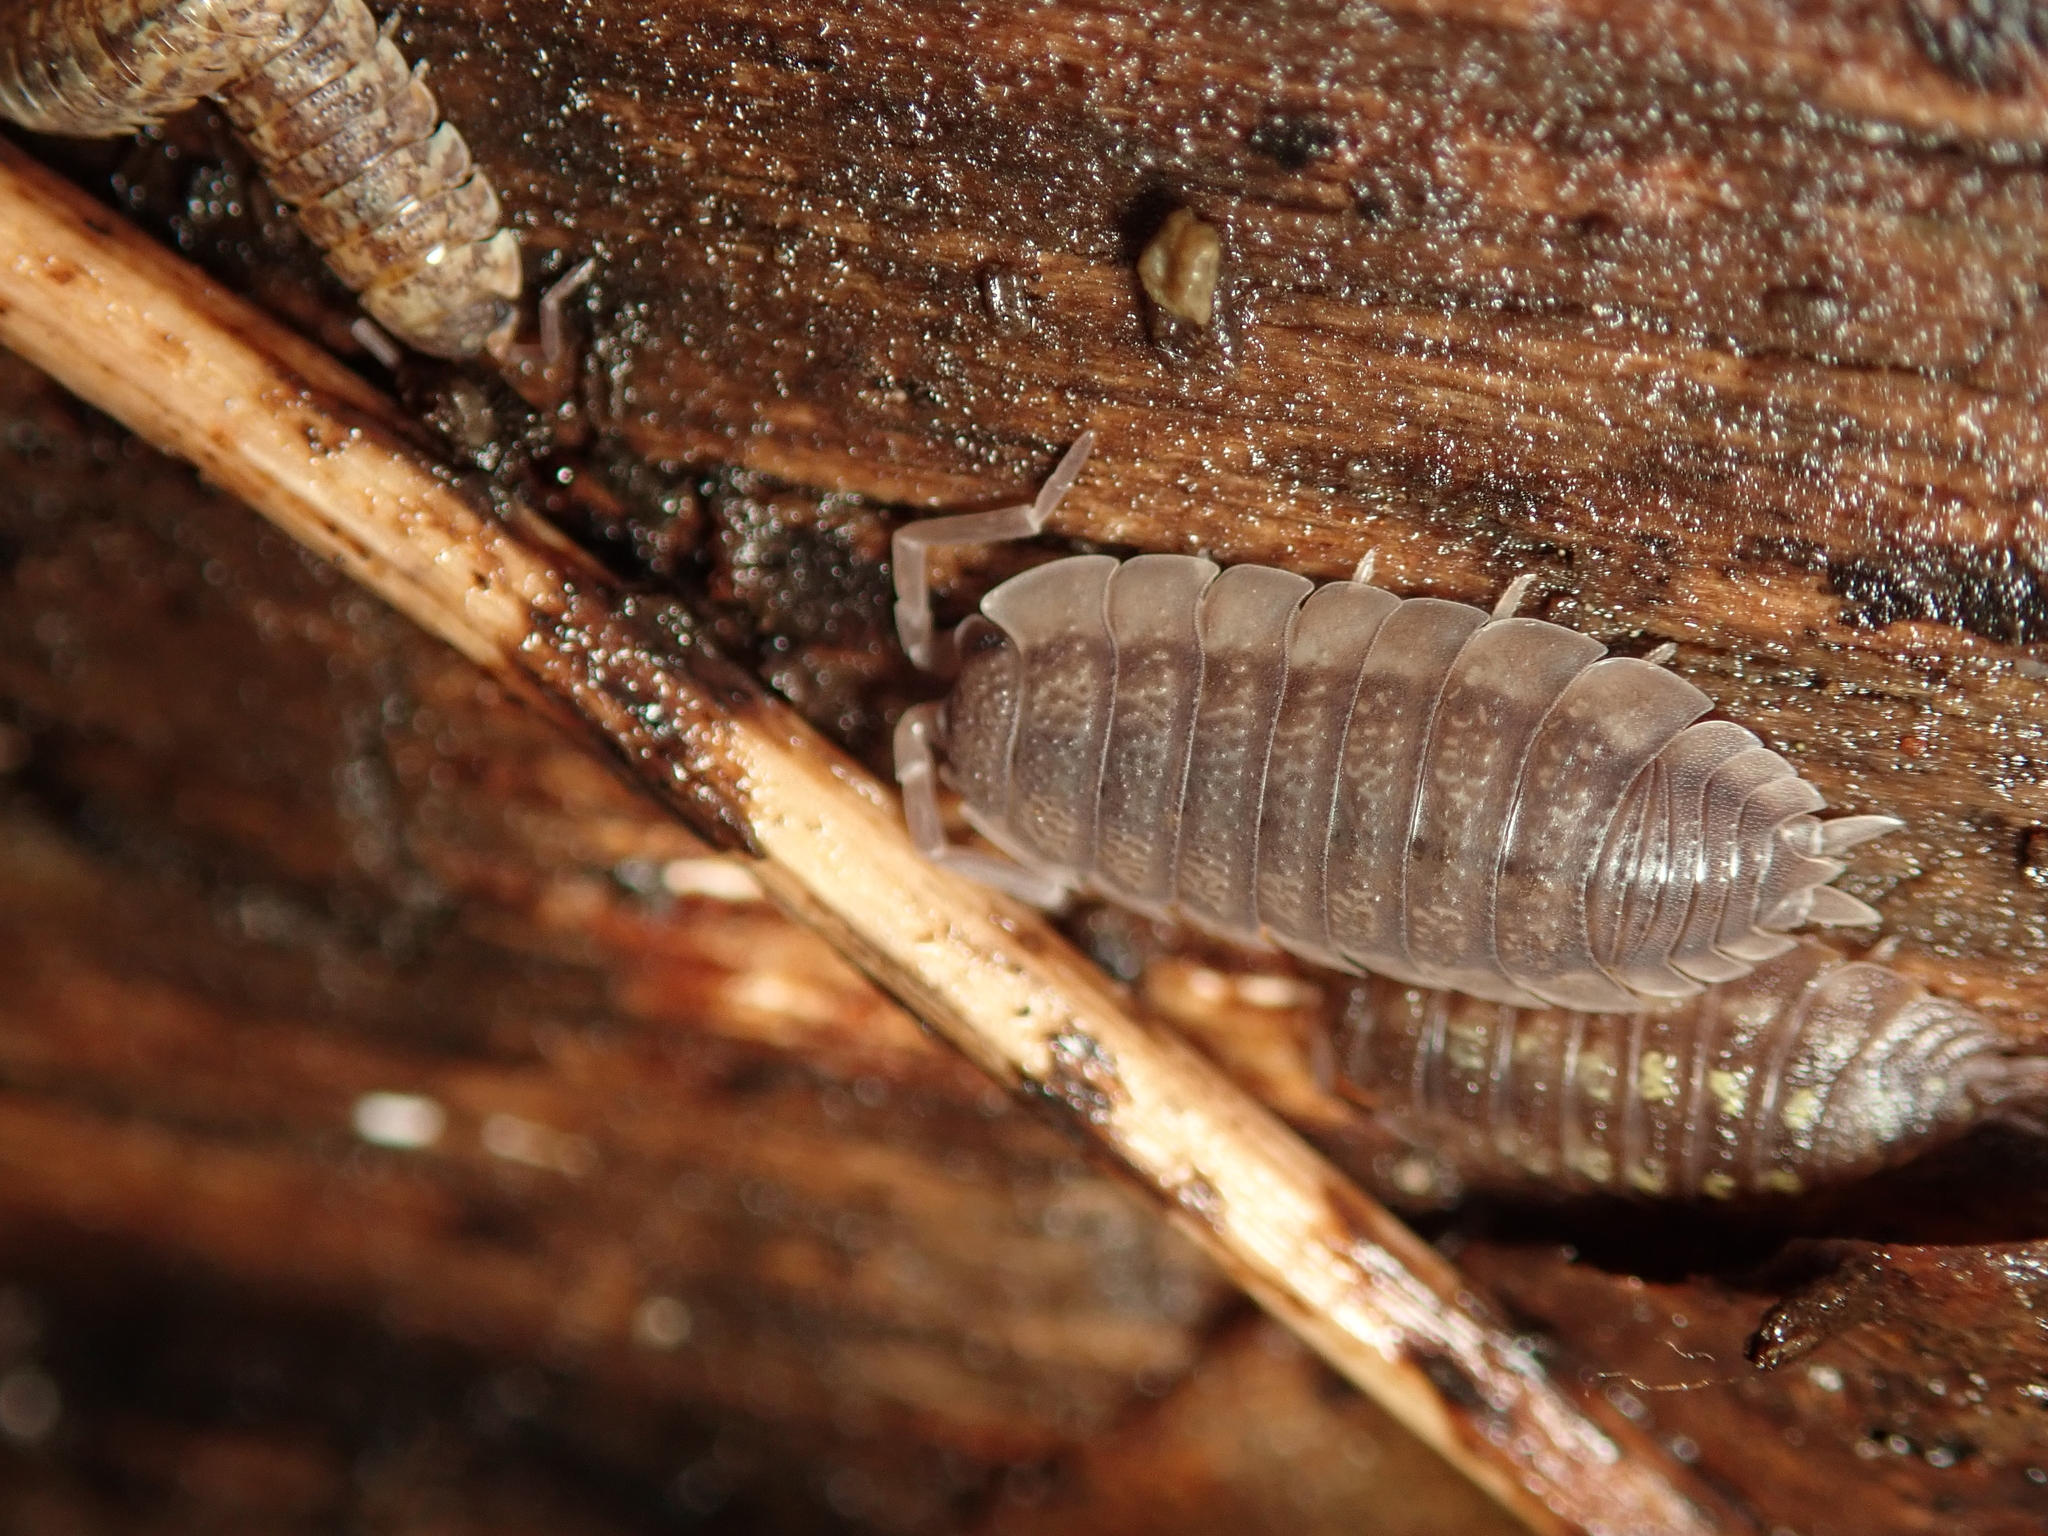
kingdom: Animalia
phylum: Arthropoda
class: Malacostraca
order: Isopoda
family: Porcellionidae
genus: Porcellio
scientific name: Porcellio scaber
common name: Common rough woodlouse
